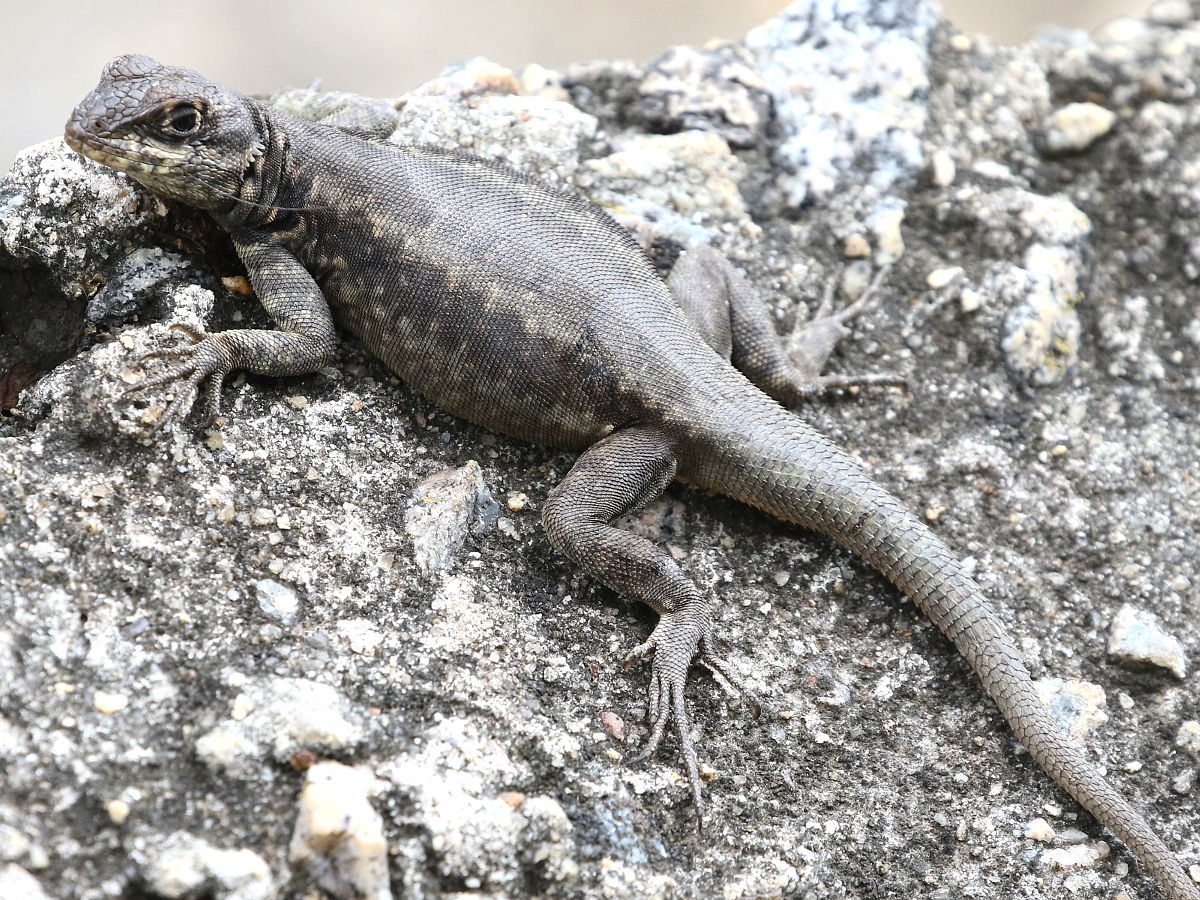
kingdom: Animalia
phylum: Chordata
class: Squamata
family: Tropiduridae
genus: Tropidurus
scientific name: Tropidurus torquatus
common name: Amazon lava lizard
